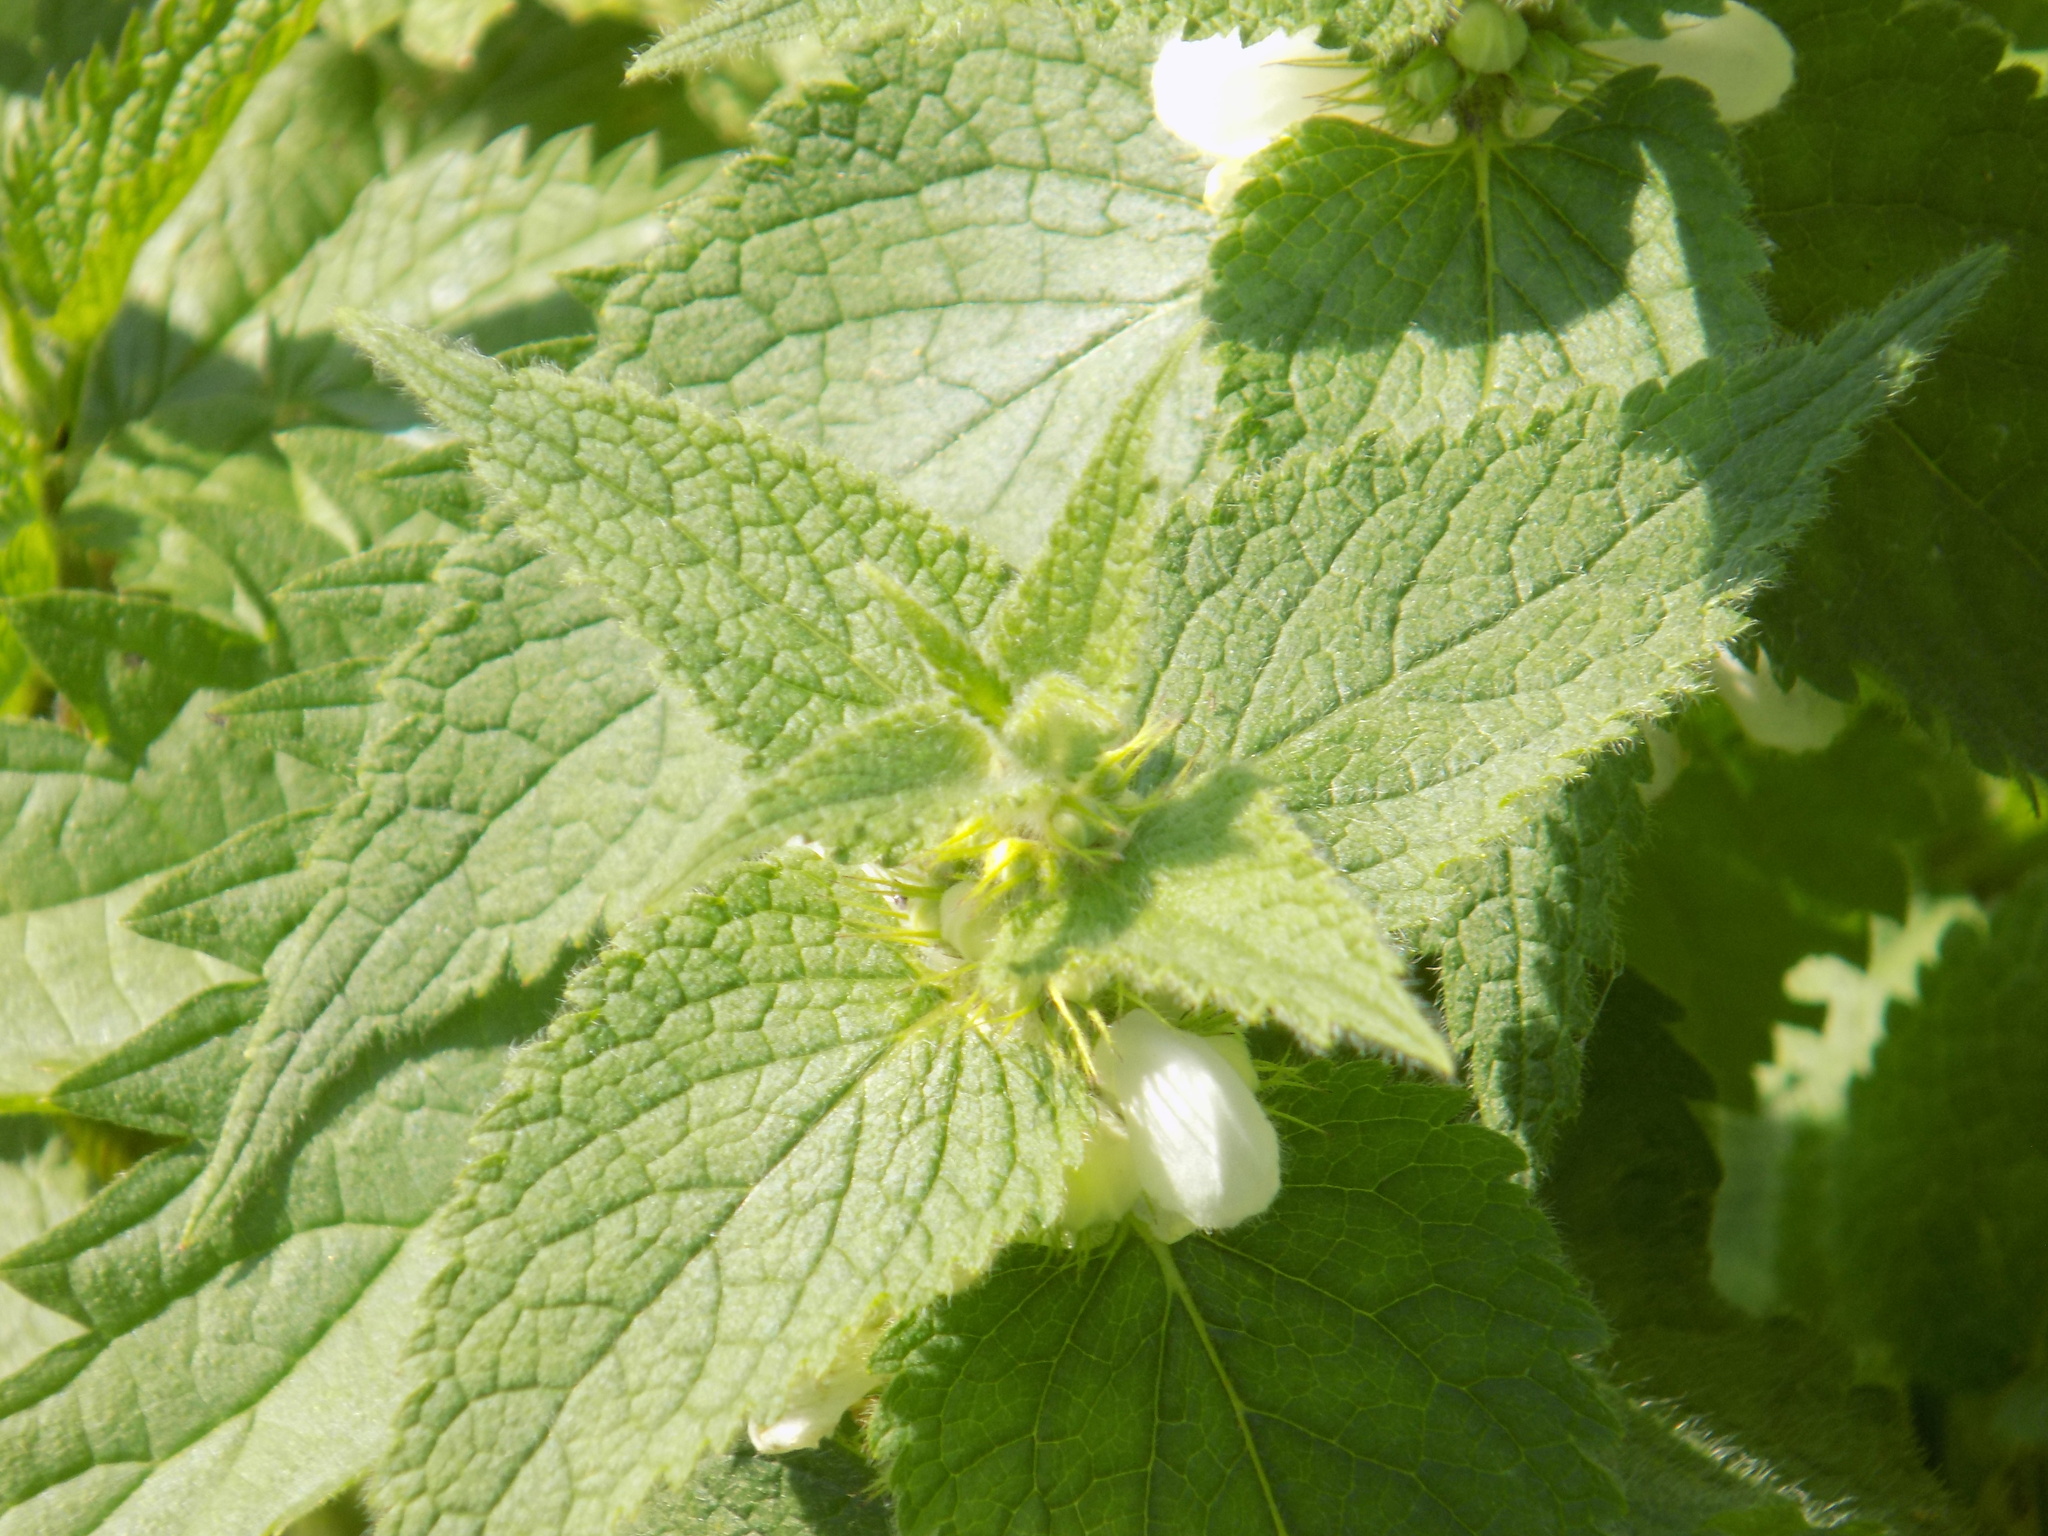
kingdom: Plantae
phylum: Tracheophyta
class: Magnoliopsida
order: Lamiales
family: Lamiaceae
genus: Lamium
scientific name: Lamium album
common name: White dead-nettle
